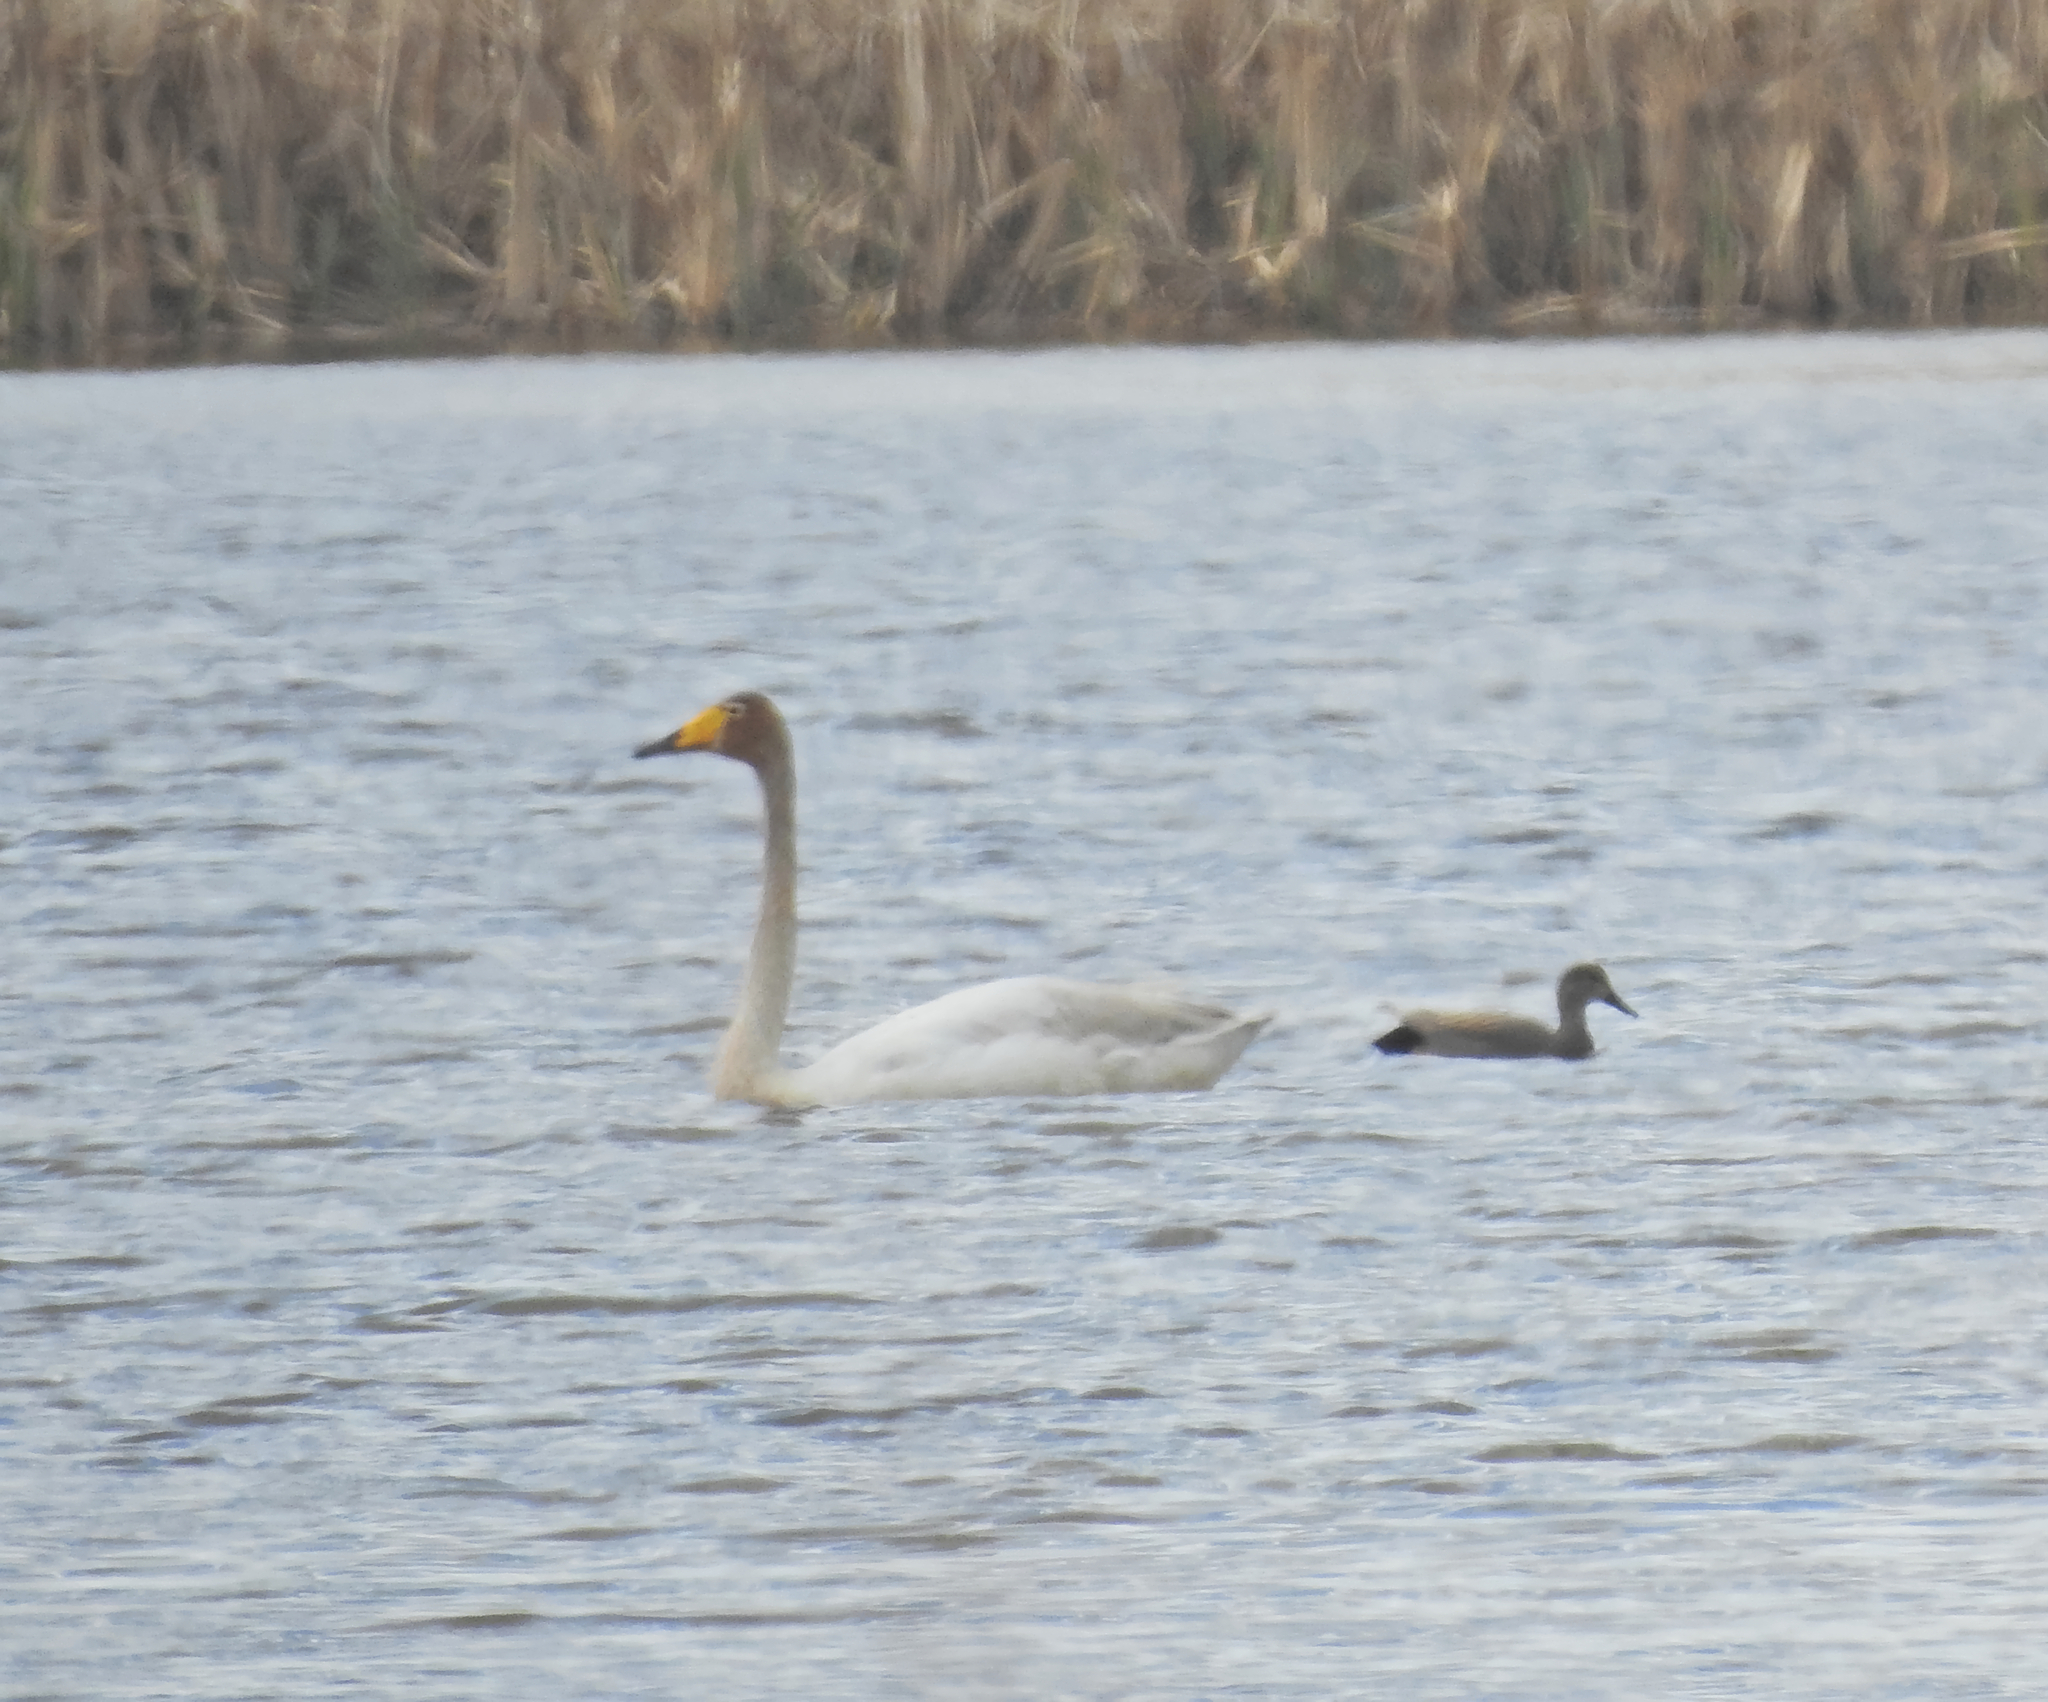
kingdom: Animalia
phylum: Chordata
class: Aves
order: Anseriformes
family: Anatidae
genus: Mareca
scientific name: Mareca strepera
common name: Gadwall
